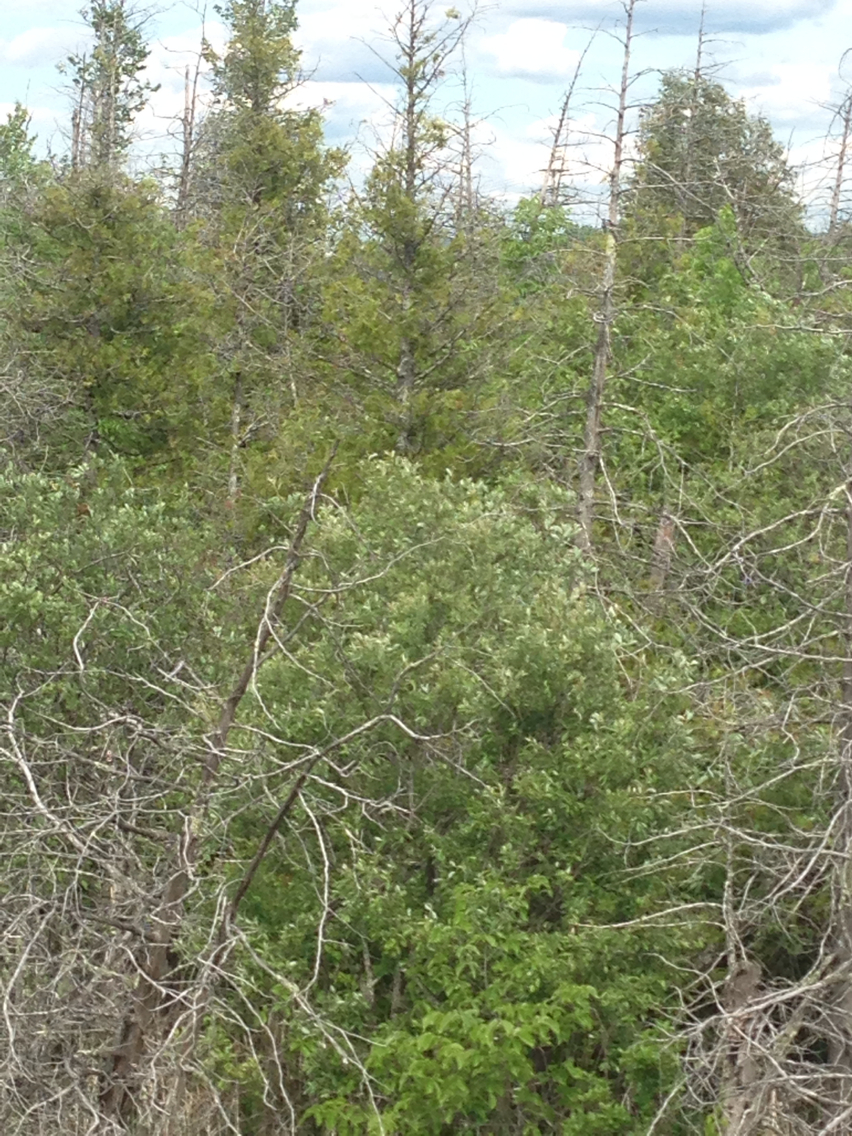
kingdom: Plantae
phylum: Tracheophyta
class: Pinopsida
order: Pinales
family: Cupressaceae
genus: Thuja
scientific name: Thuja occidentalis
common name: Northern white-cedar
